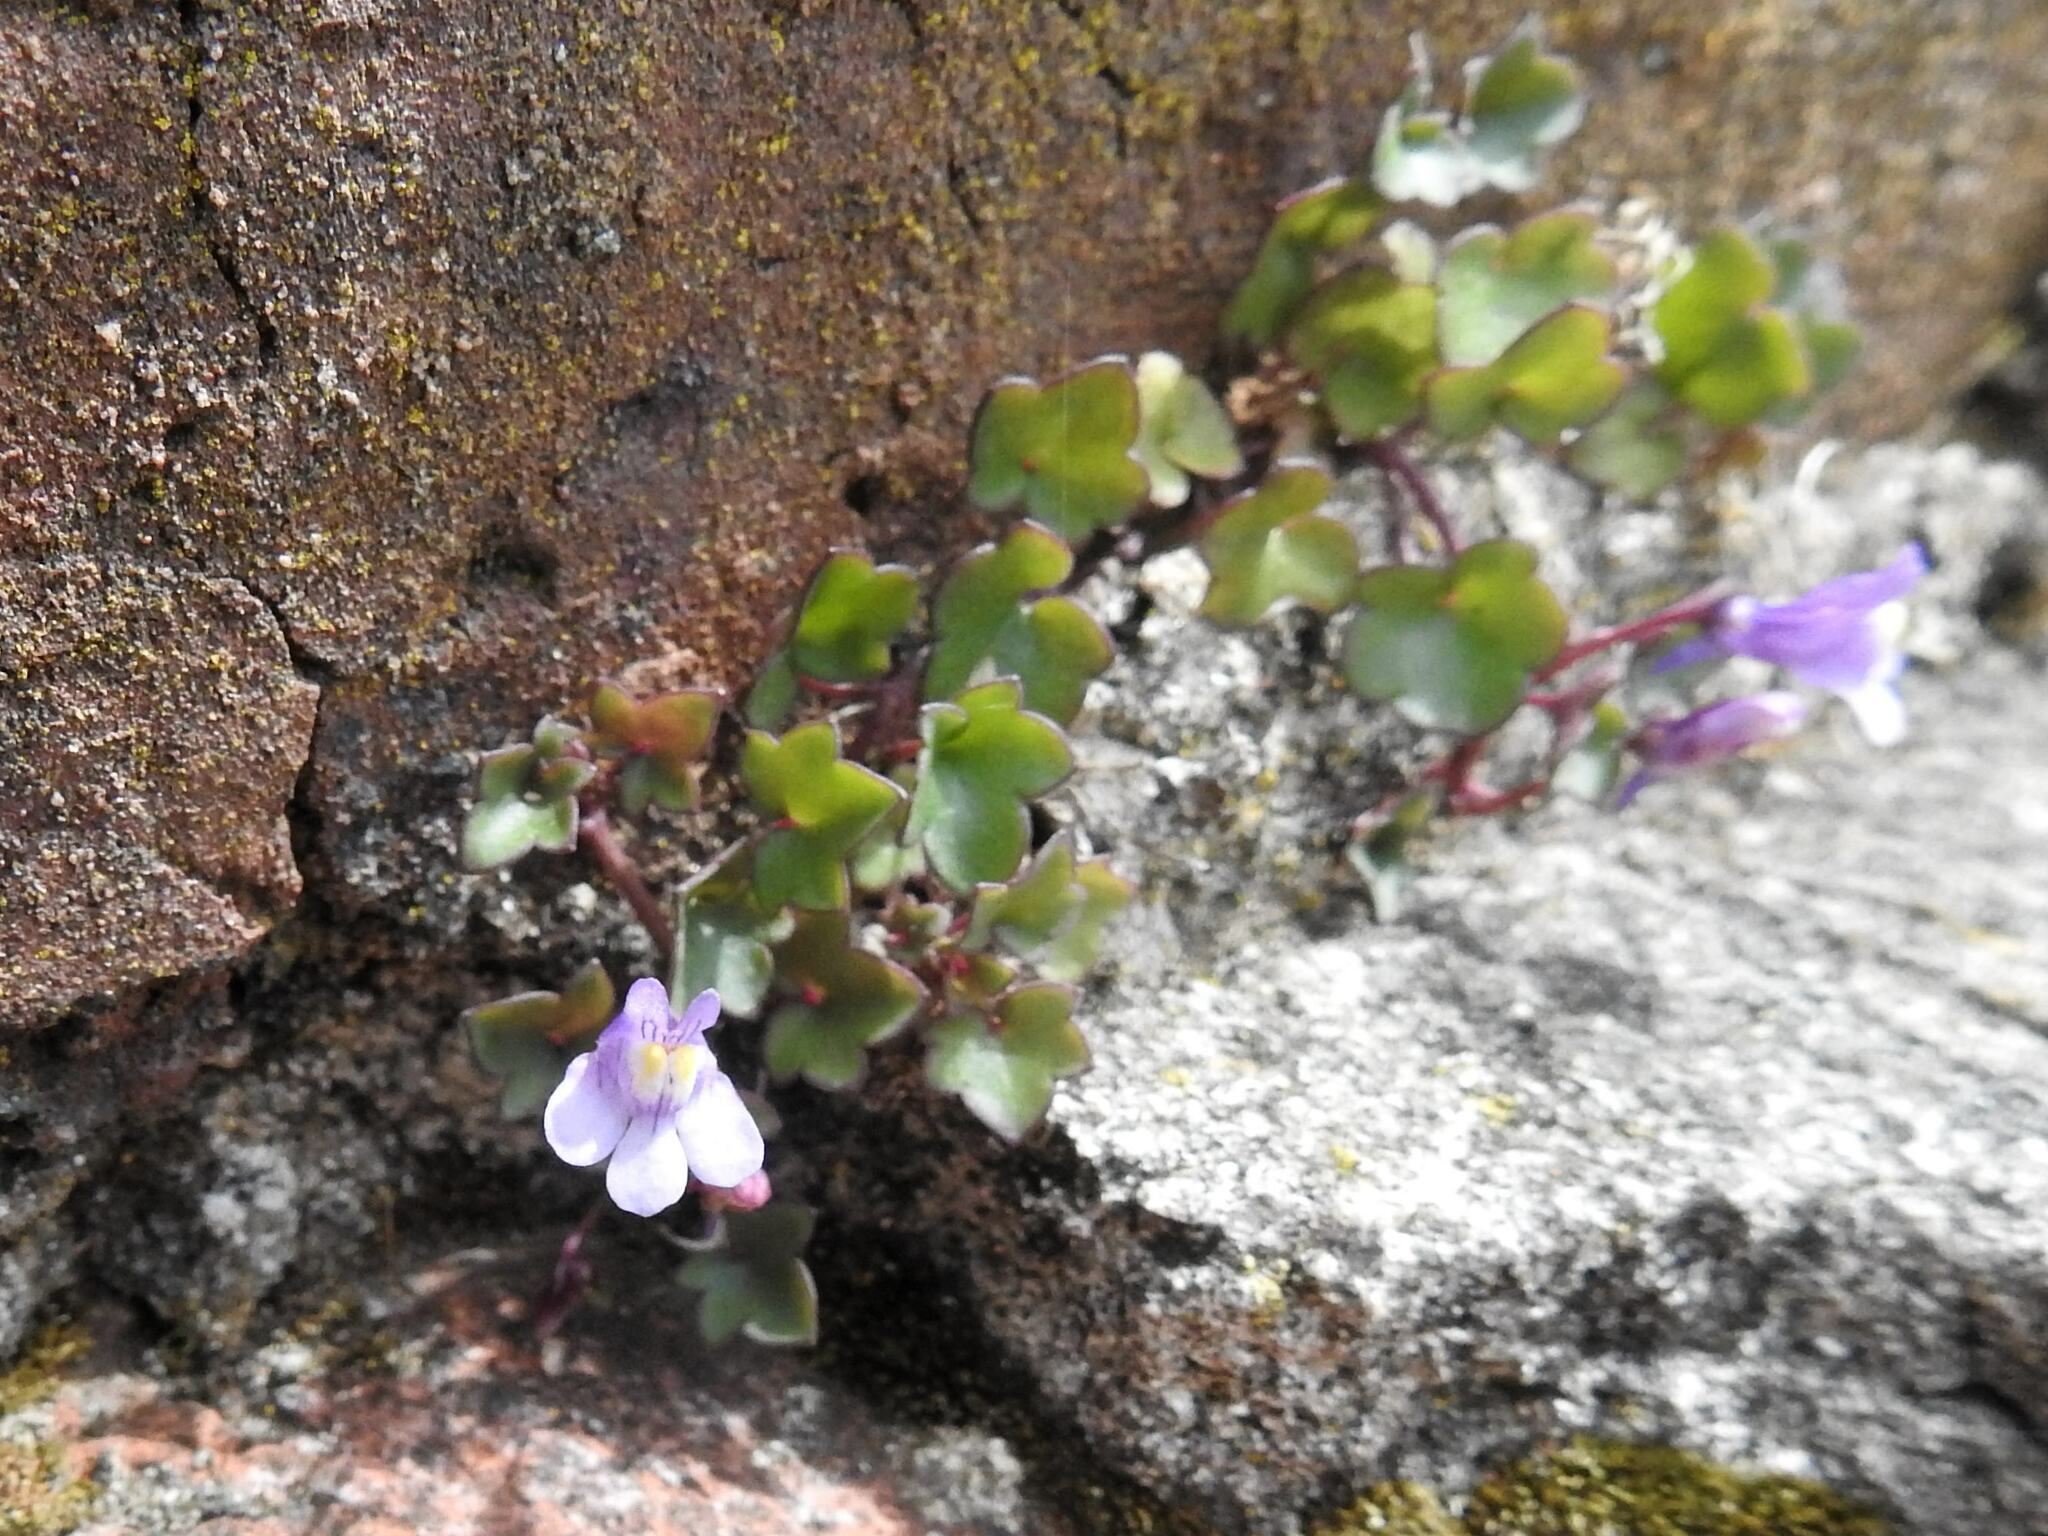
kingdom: Plantae
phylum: Tracheophyta
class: Magnoliopsida
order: Lamiales
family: Plantaginaceae
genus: Cymbalaria
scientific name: Cymbalaria muralis
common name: Ivy-leaved toadflax
